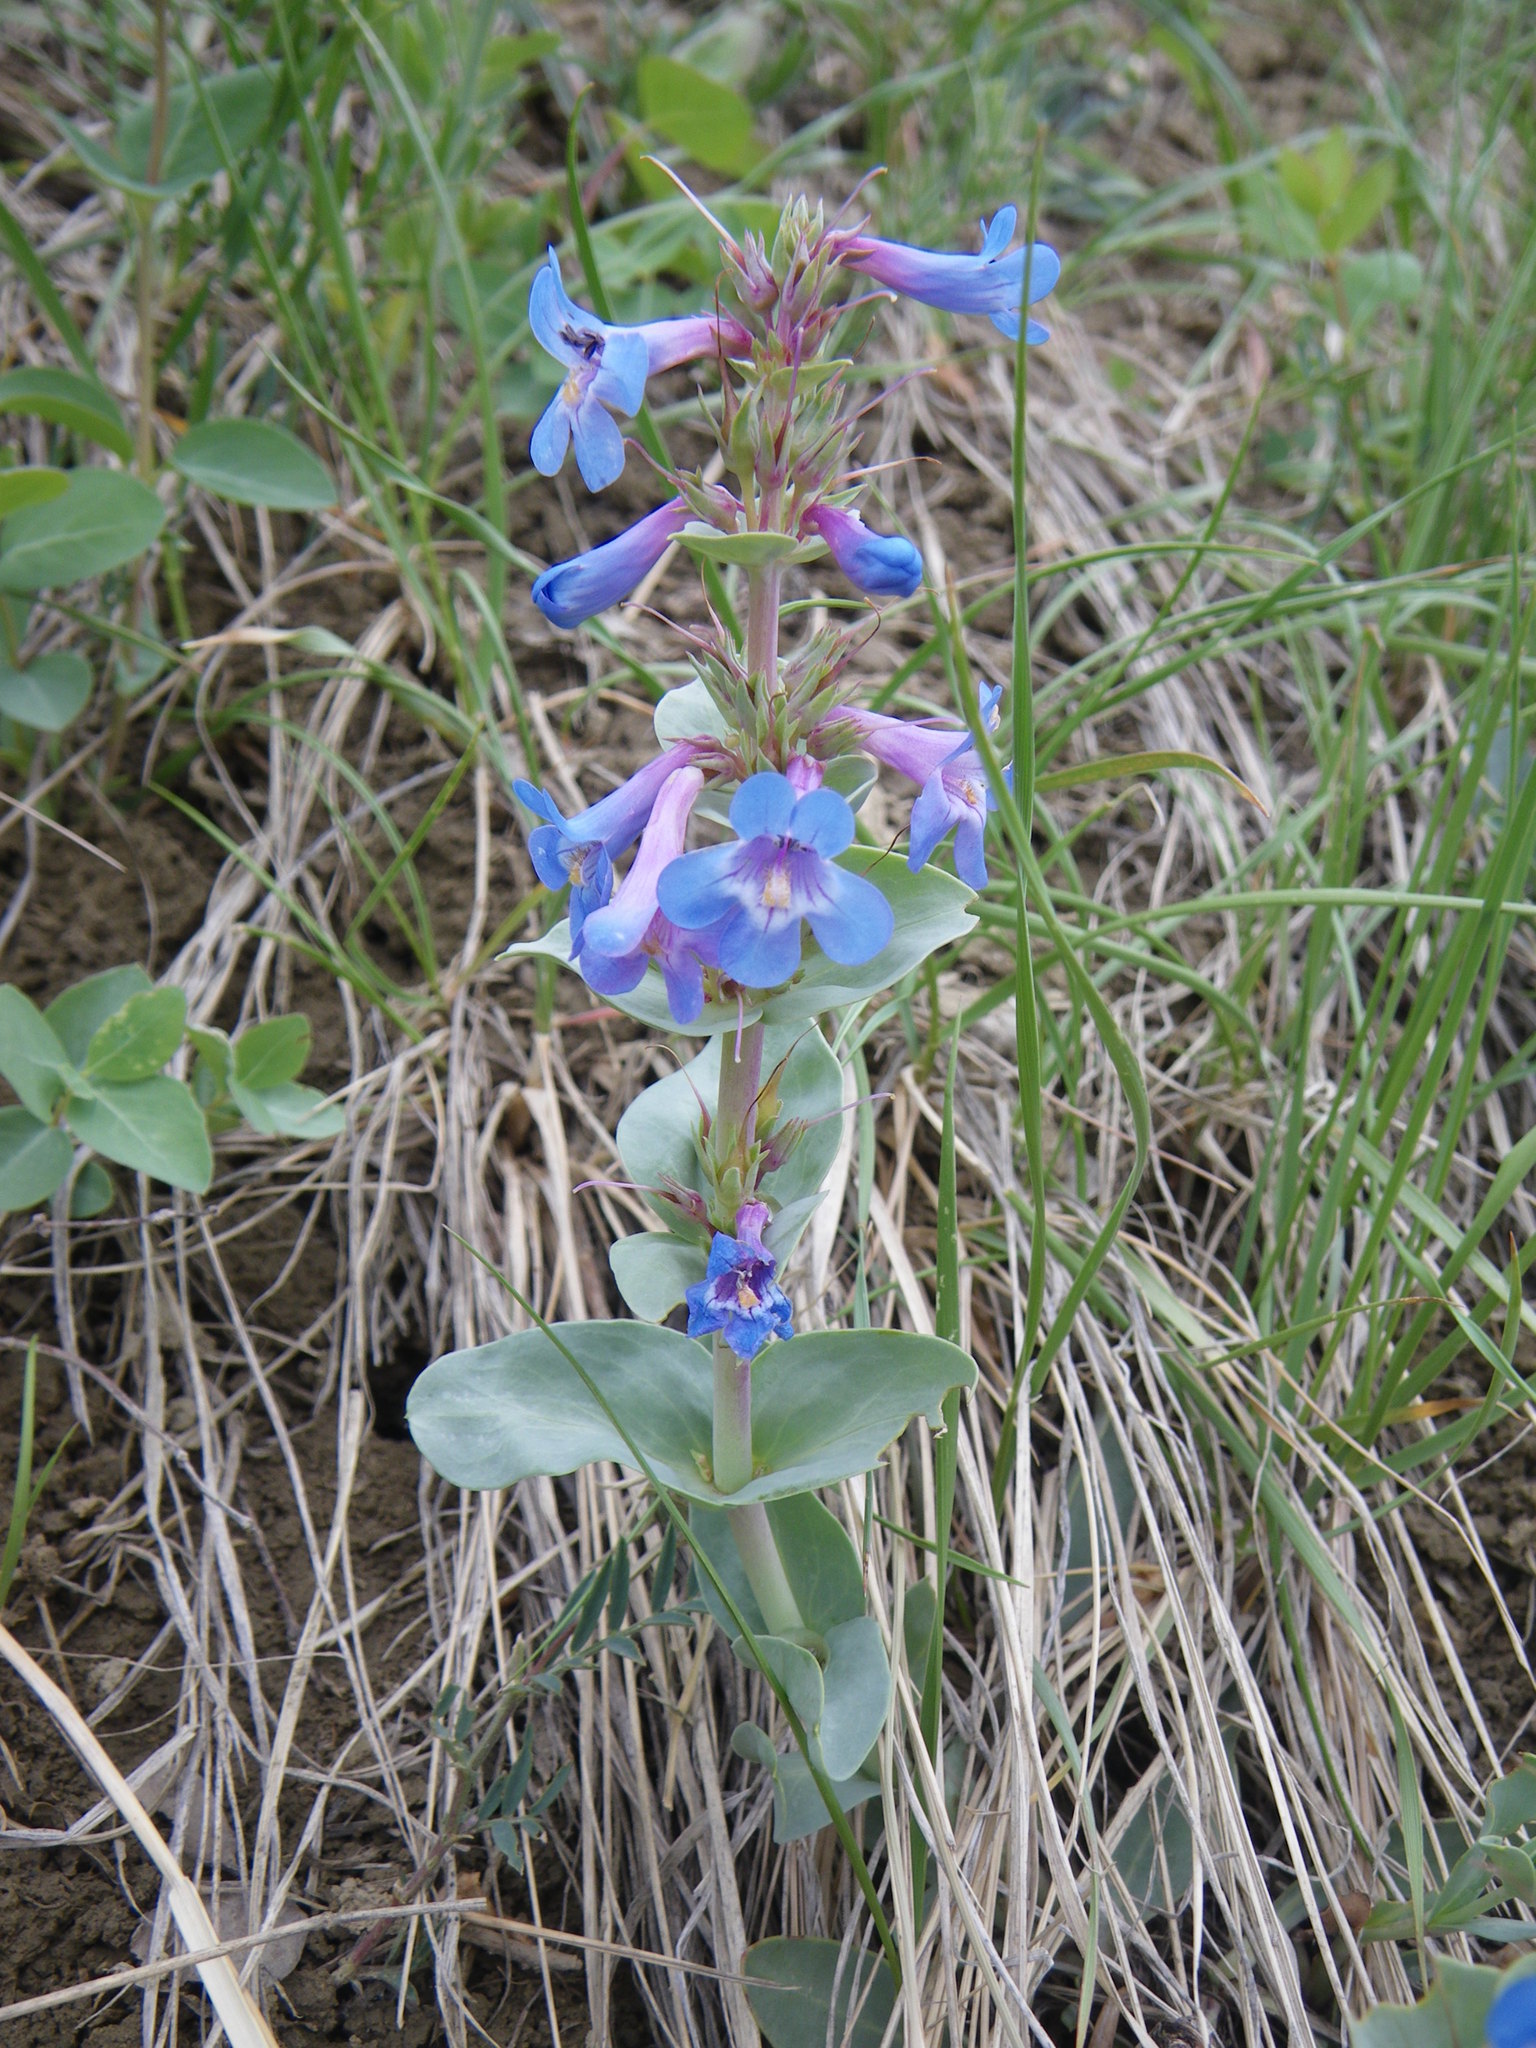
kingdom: Plantae
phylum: Tracheophyta
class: Magnoliopsida
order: Lamiales
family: Plantaginaceae
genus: Penstemon
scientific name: Penstemon nitidus
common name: Shining penstemon
